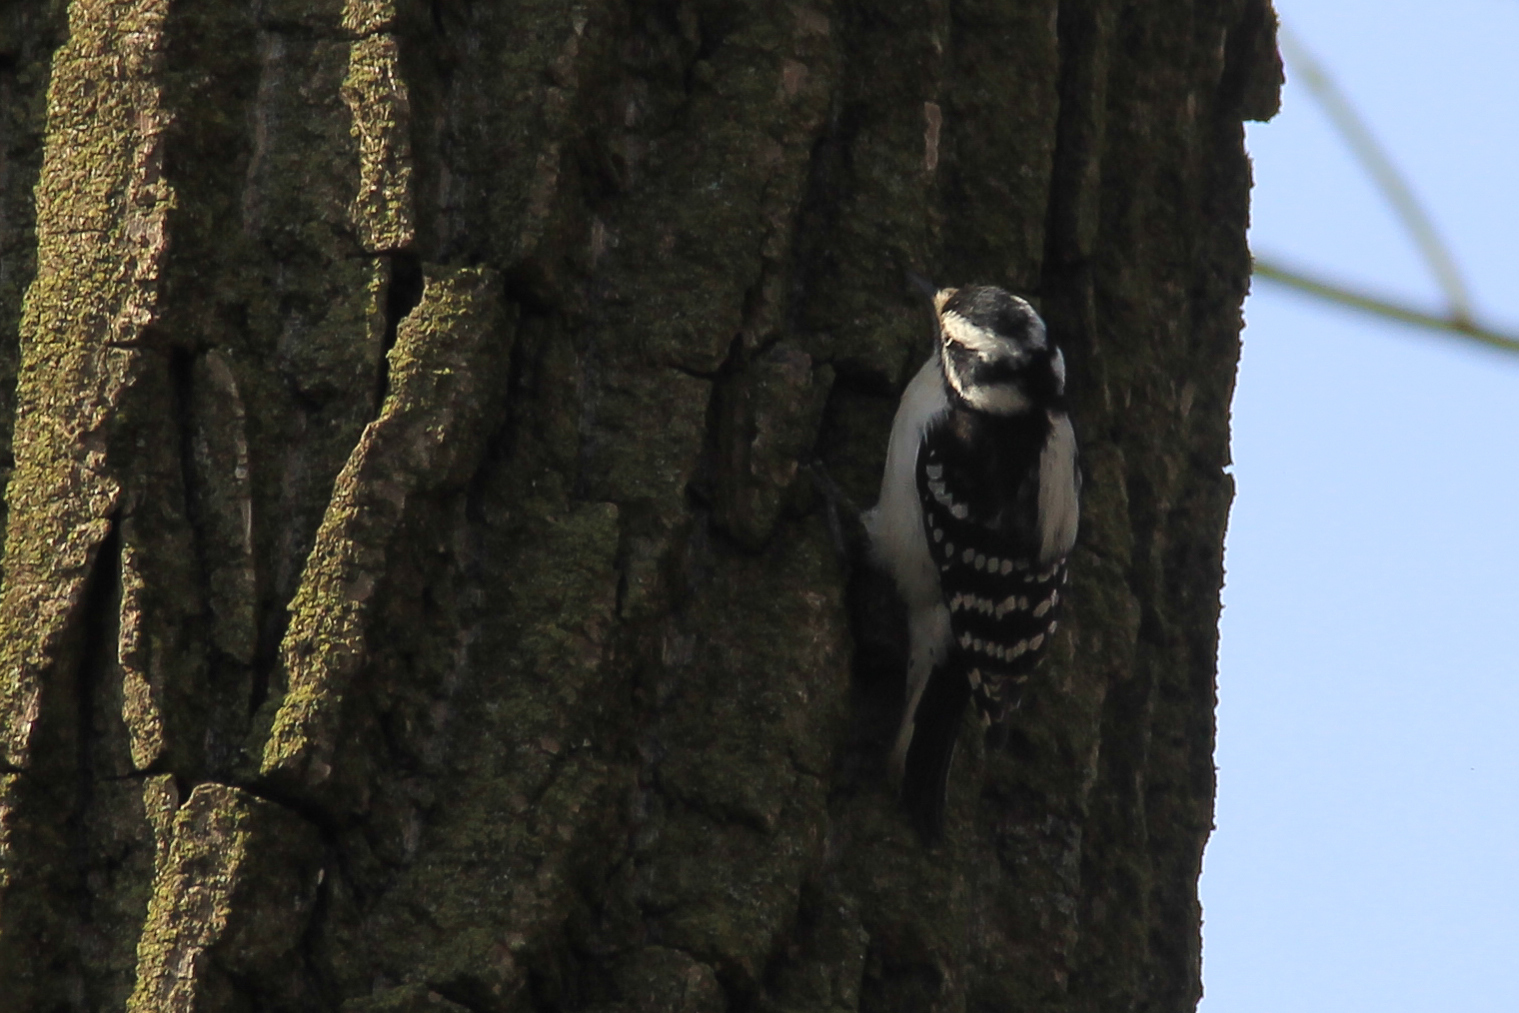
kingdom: Animalia
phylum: Chordata
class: Aves
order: Piciformes
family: Picidae
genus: Dryobates
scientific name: Dryobates pubescens
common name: Downy woodpecker
